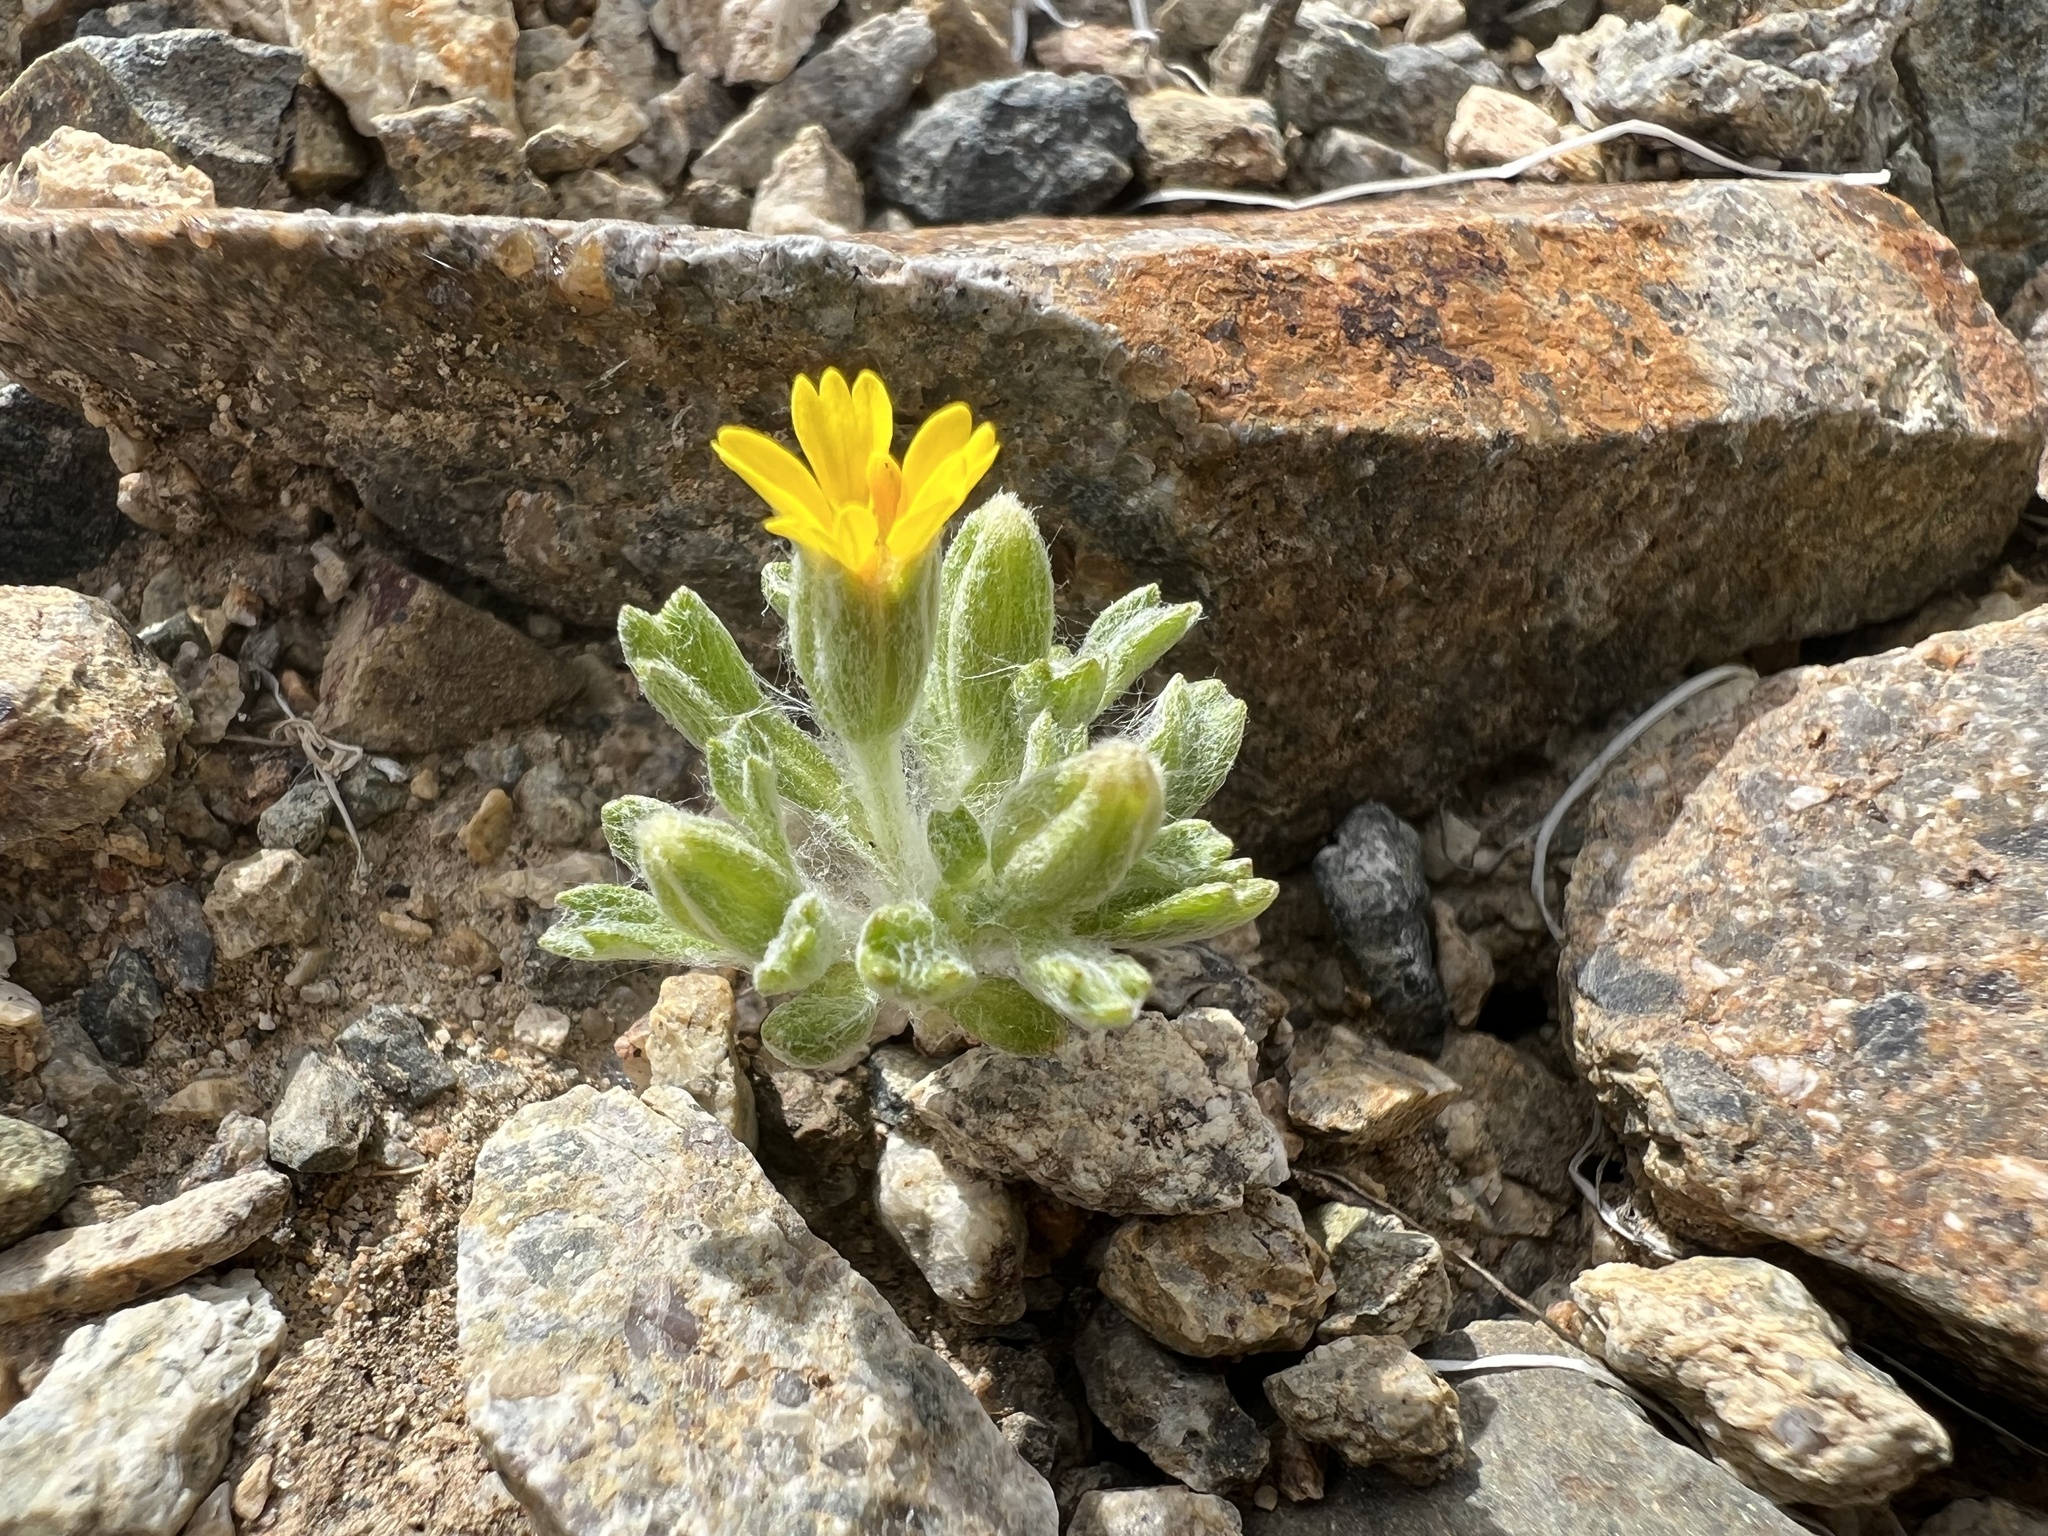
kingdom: Plantae
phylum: Tracheophyta
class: Magnoliopsida
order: Asterales
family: Asteraceae
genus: Syntrichopappus
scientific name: Syntrichopappus fremontii
